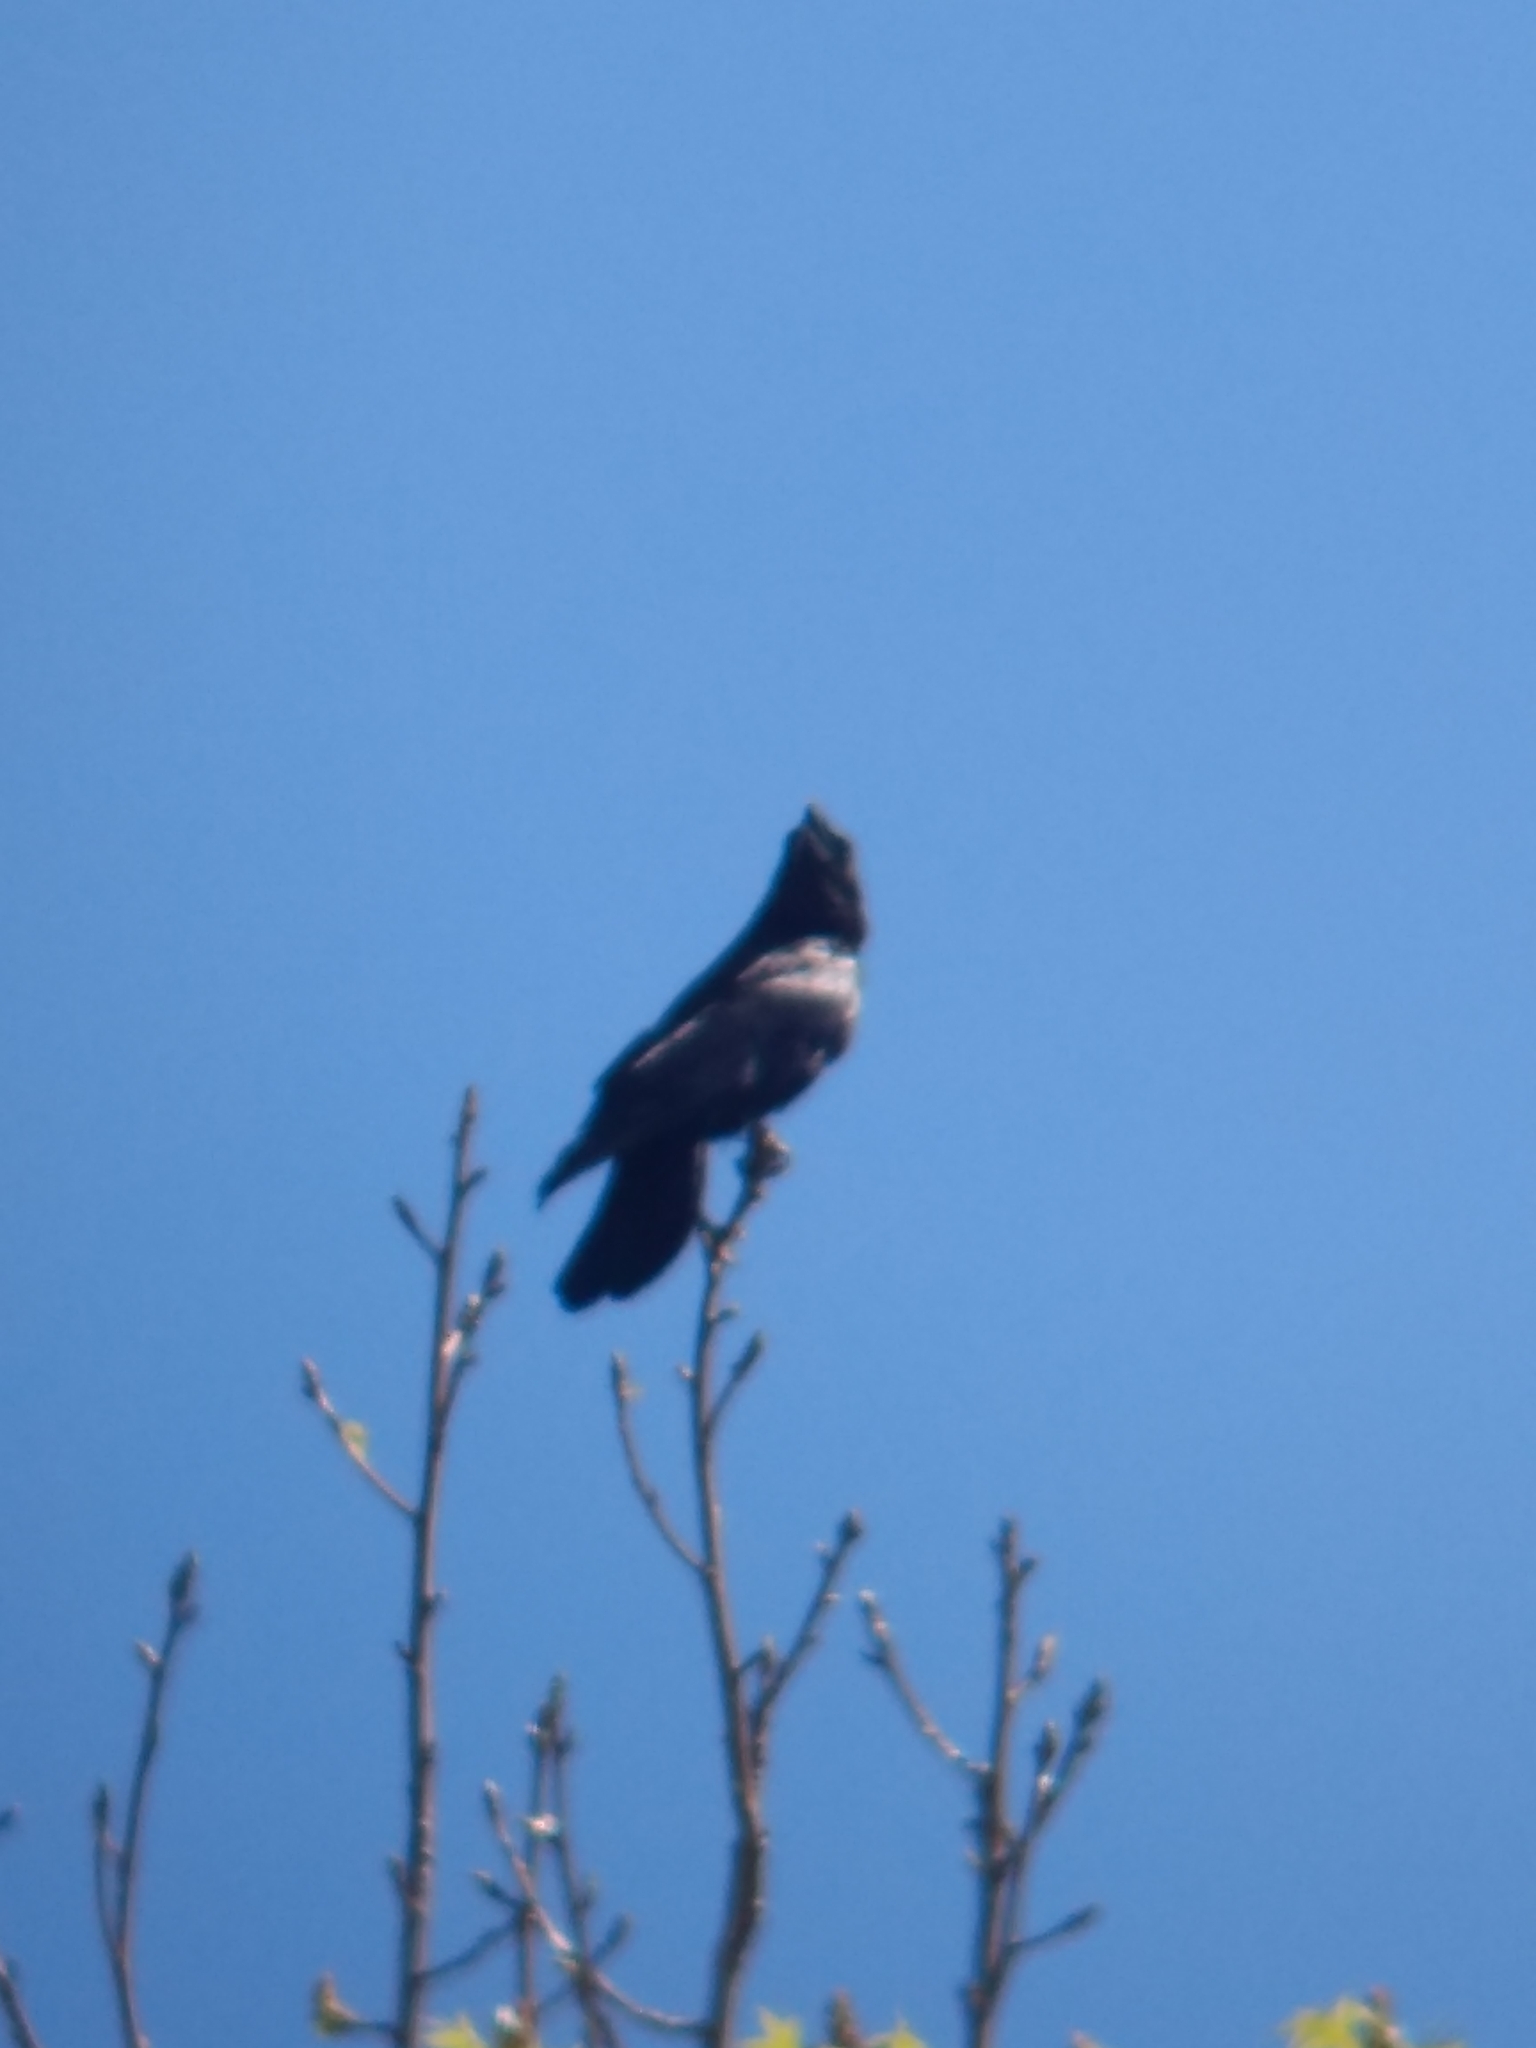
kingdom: Animalia
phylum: Chordata
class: Aves
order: Passeriformes
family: Corvidae
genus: Corvus
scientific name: Corvus brachyrhynchos
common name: American crow
